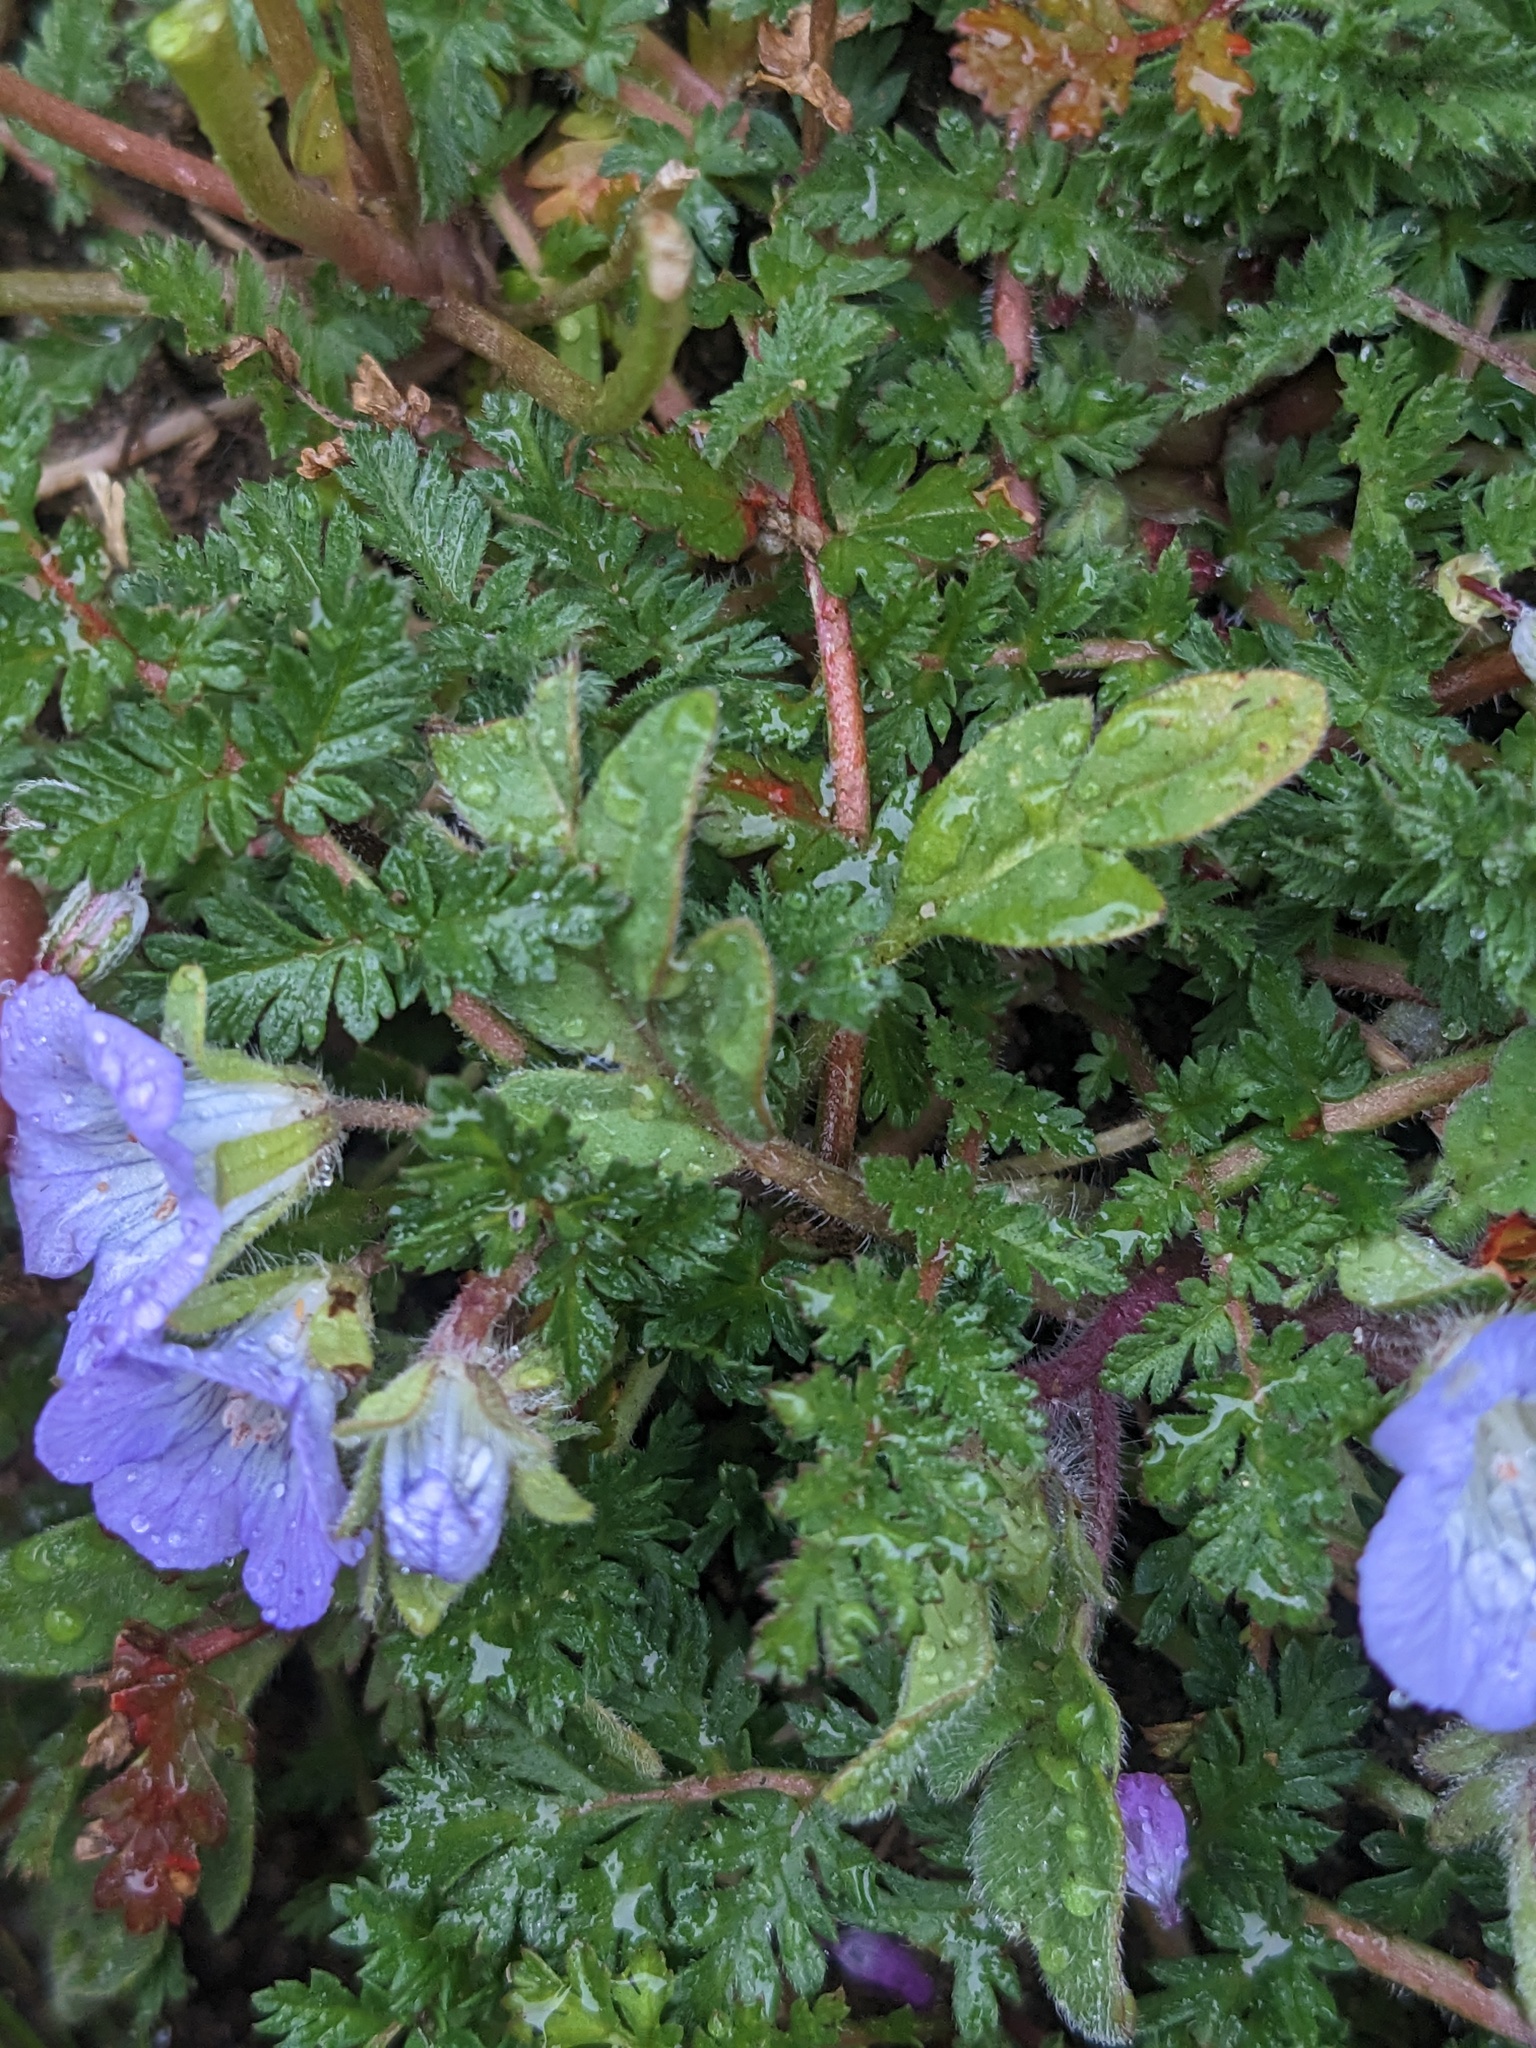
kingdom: Plantae
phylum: Tracheophyta
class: Magnoliopsida
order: Boraginales
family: Hydrophyllaceae
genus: Phacelia
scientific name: Phacelia douglasii
